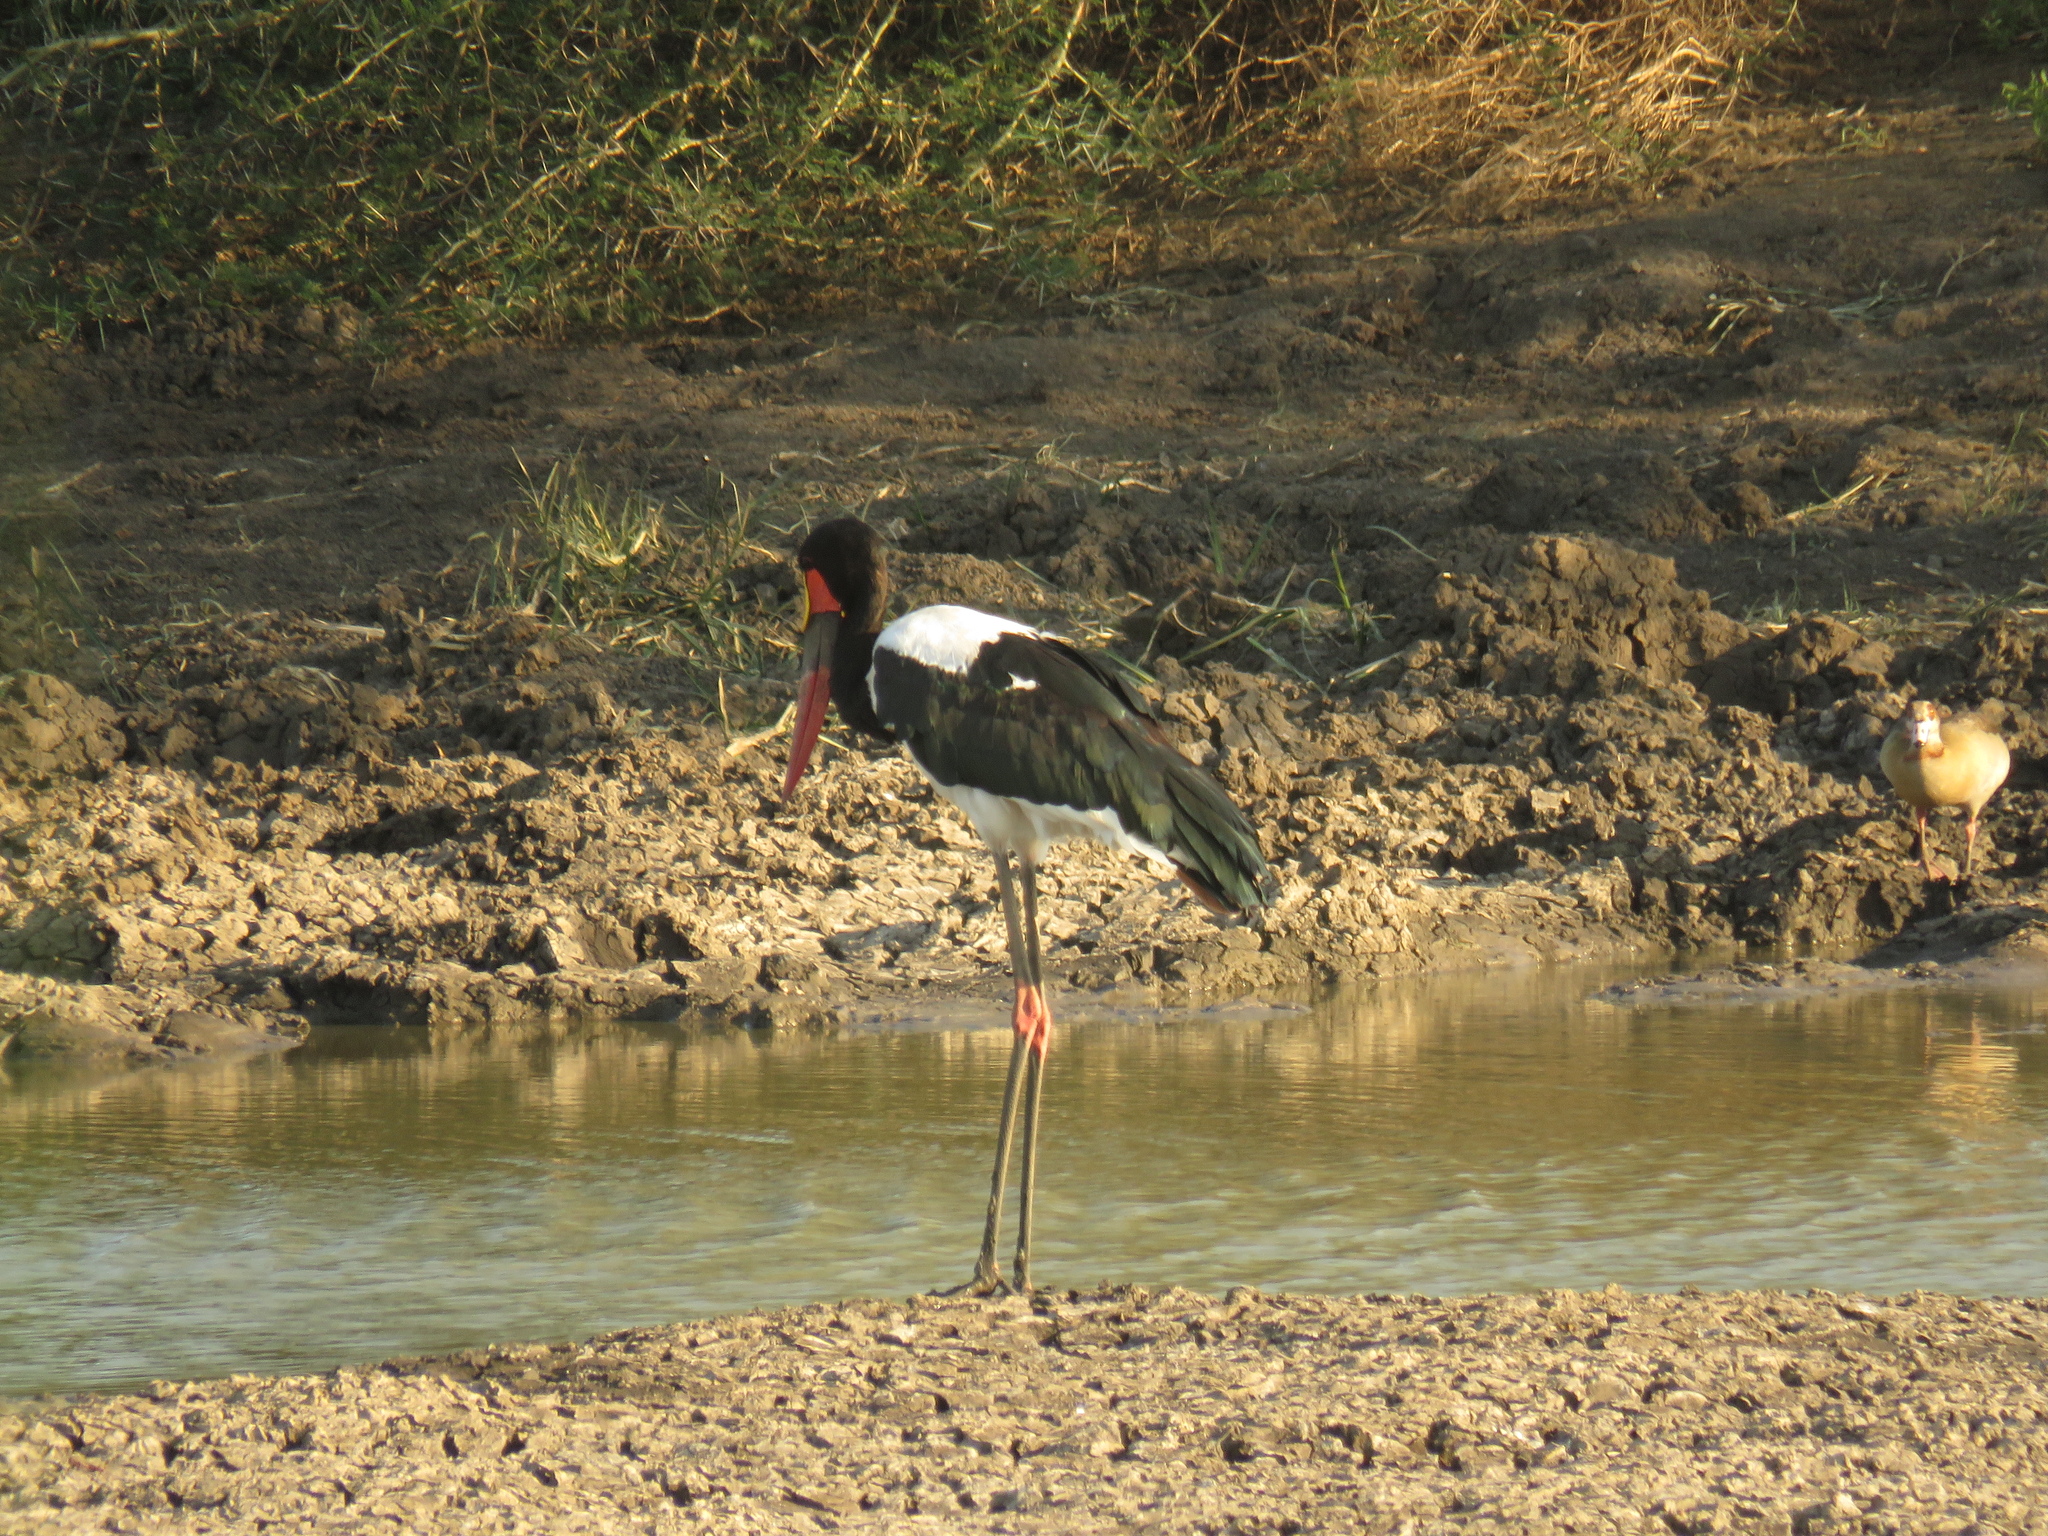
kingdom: Animalia
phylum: Chordata
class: Aves
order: Ciconiiformes
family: Ciconiidae
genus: Ephippiorhynchus
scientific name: Ephippiorhynchus senegalensis
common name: Saddle-billed stork
